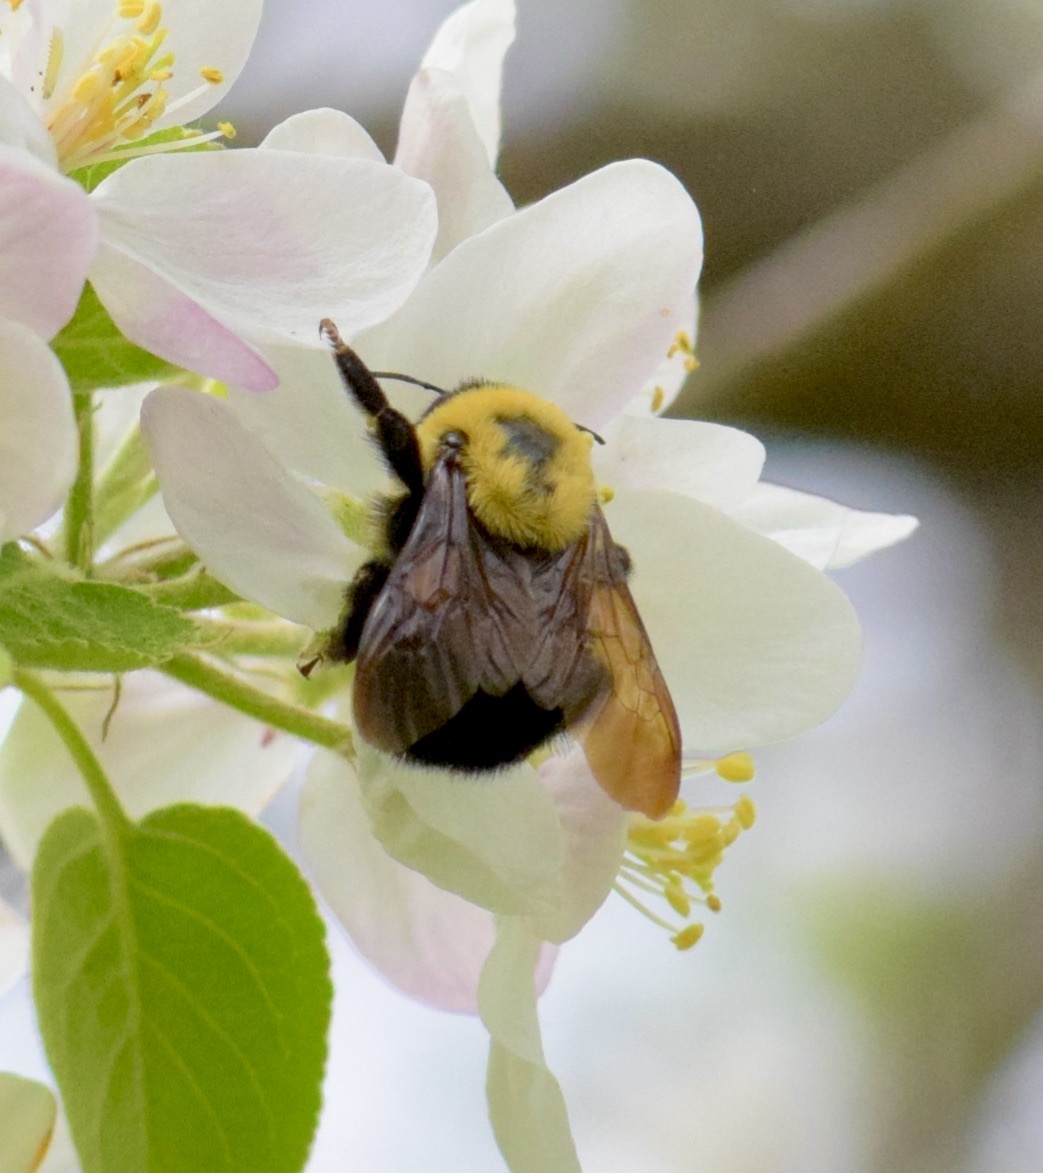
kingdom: Animalia
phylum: Arthropoda
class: Insecta
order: Hymenoptera
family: Apidae
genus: Bombus
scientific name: Bombus griseocollis
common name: Brown-belted bumble bee
